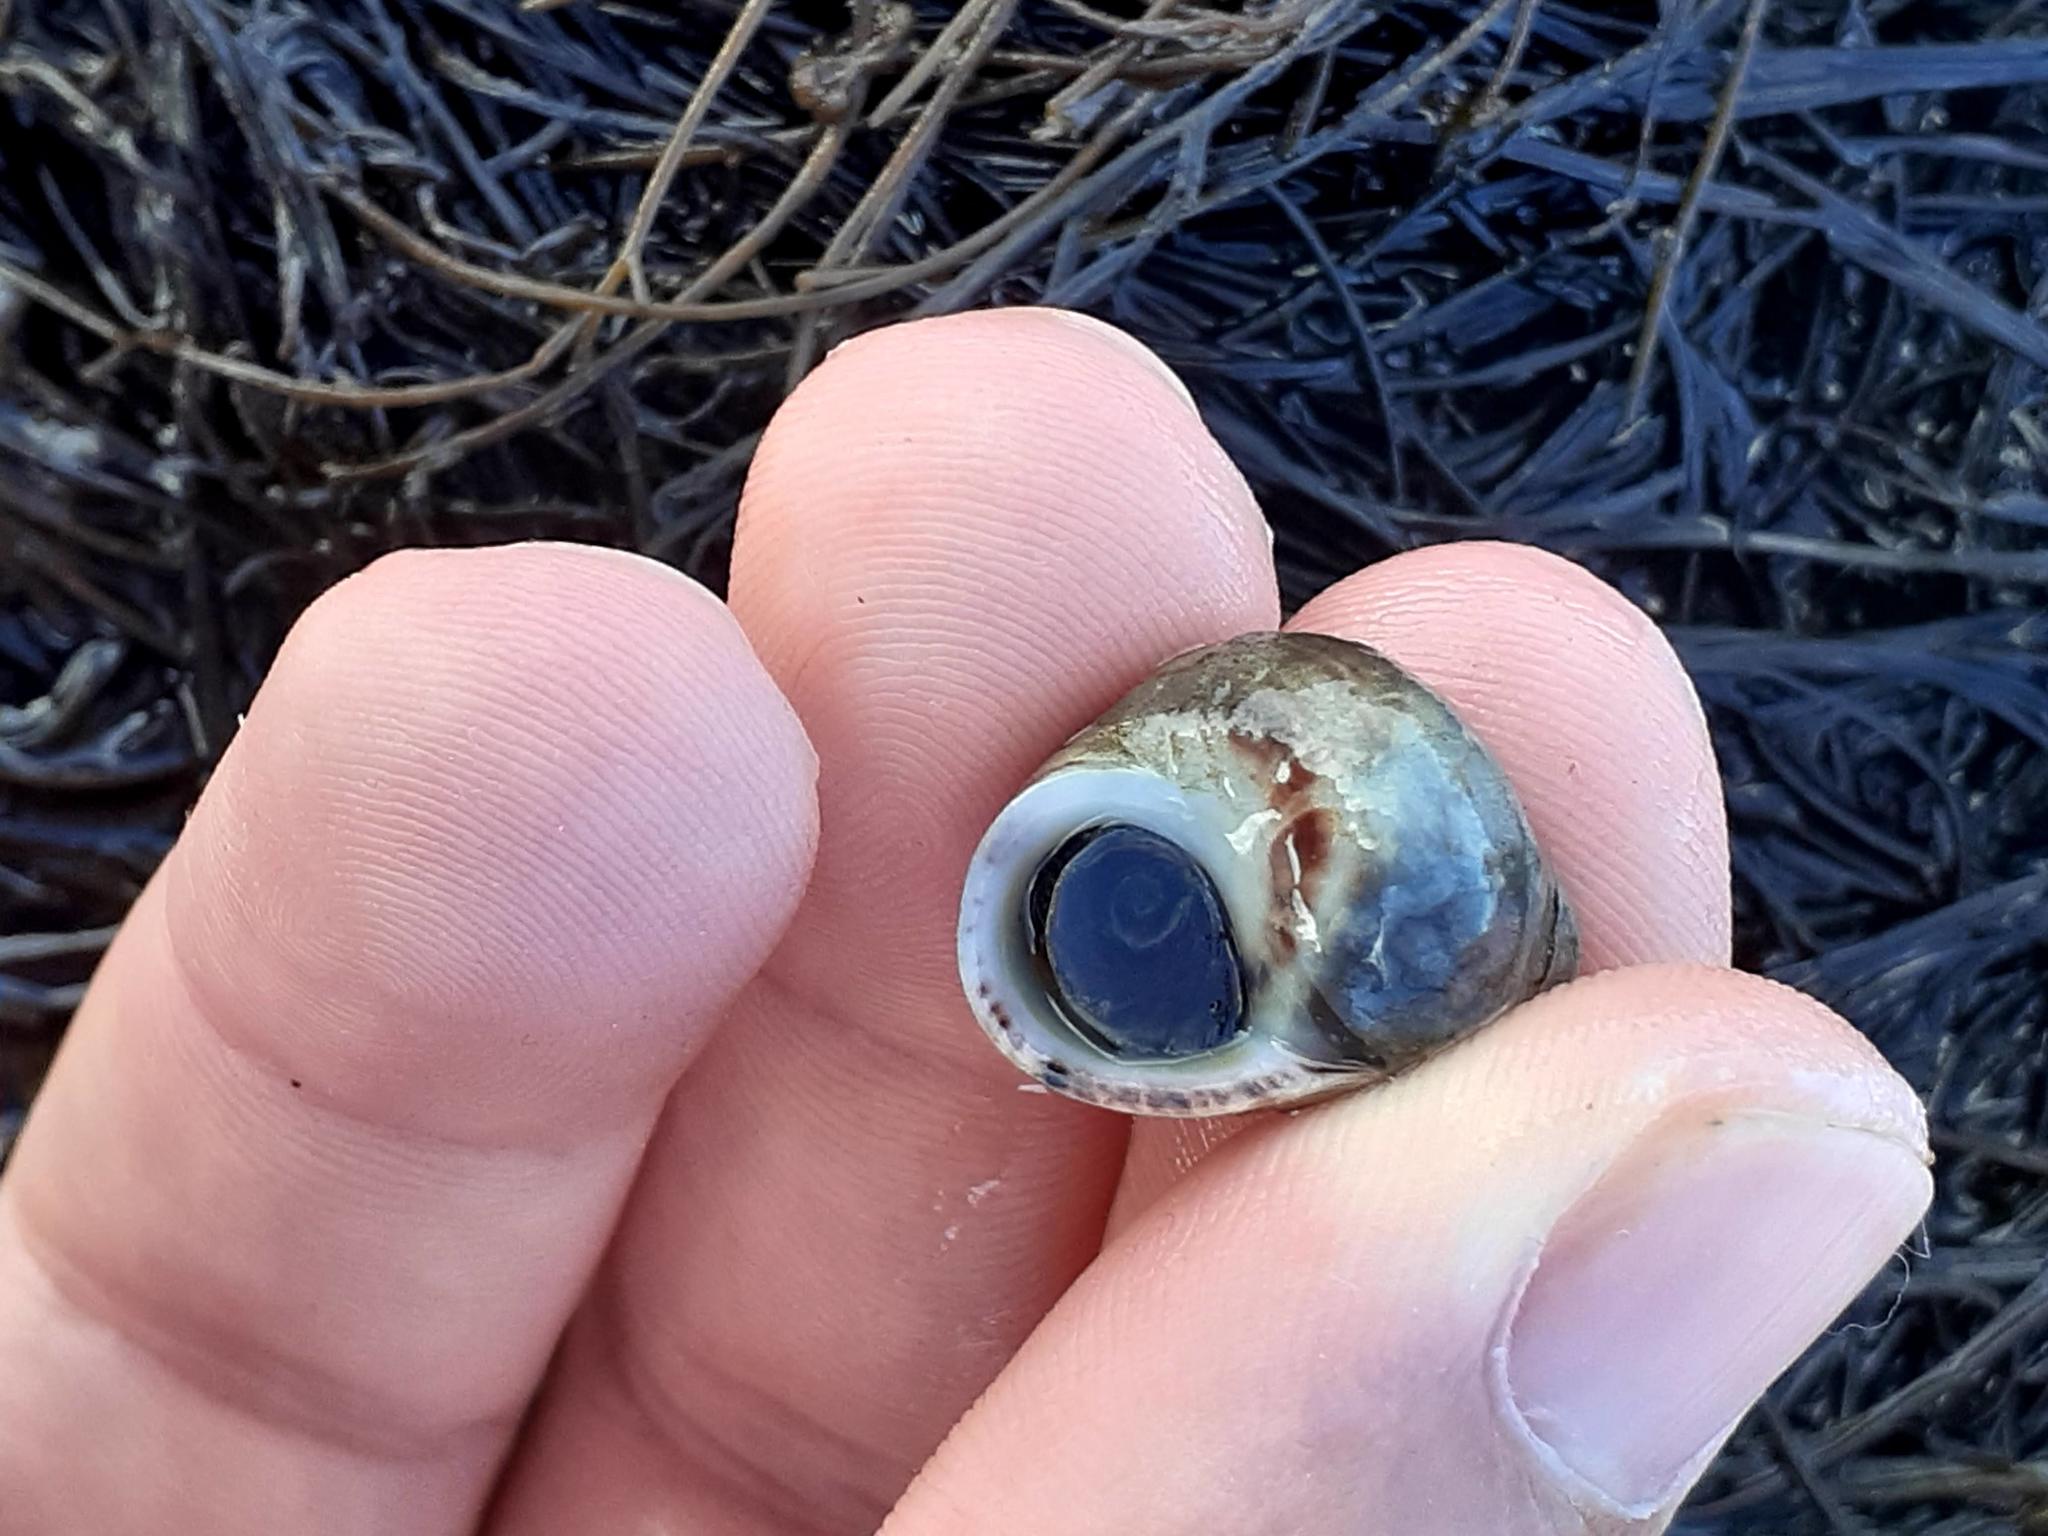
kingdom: Animalia
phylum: Mollusca
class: Gastropoda
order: Littorinimorpha
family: Littorinidae
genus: Littorina
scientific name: Littorina littorea
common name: Common periwinkle
